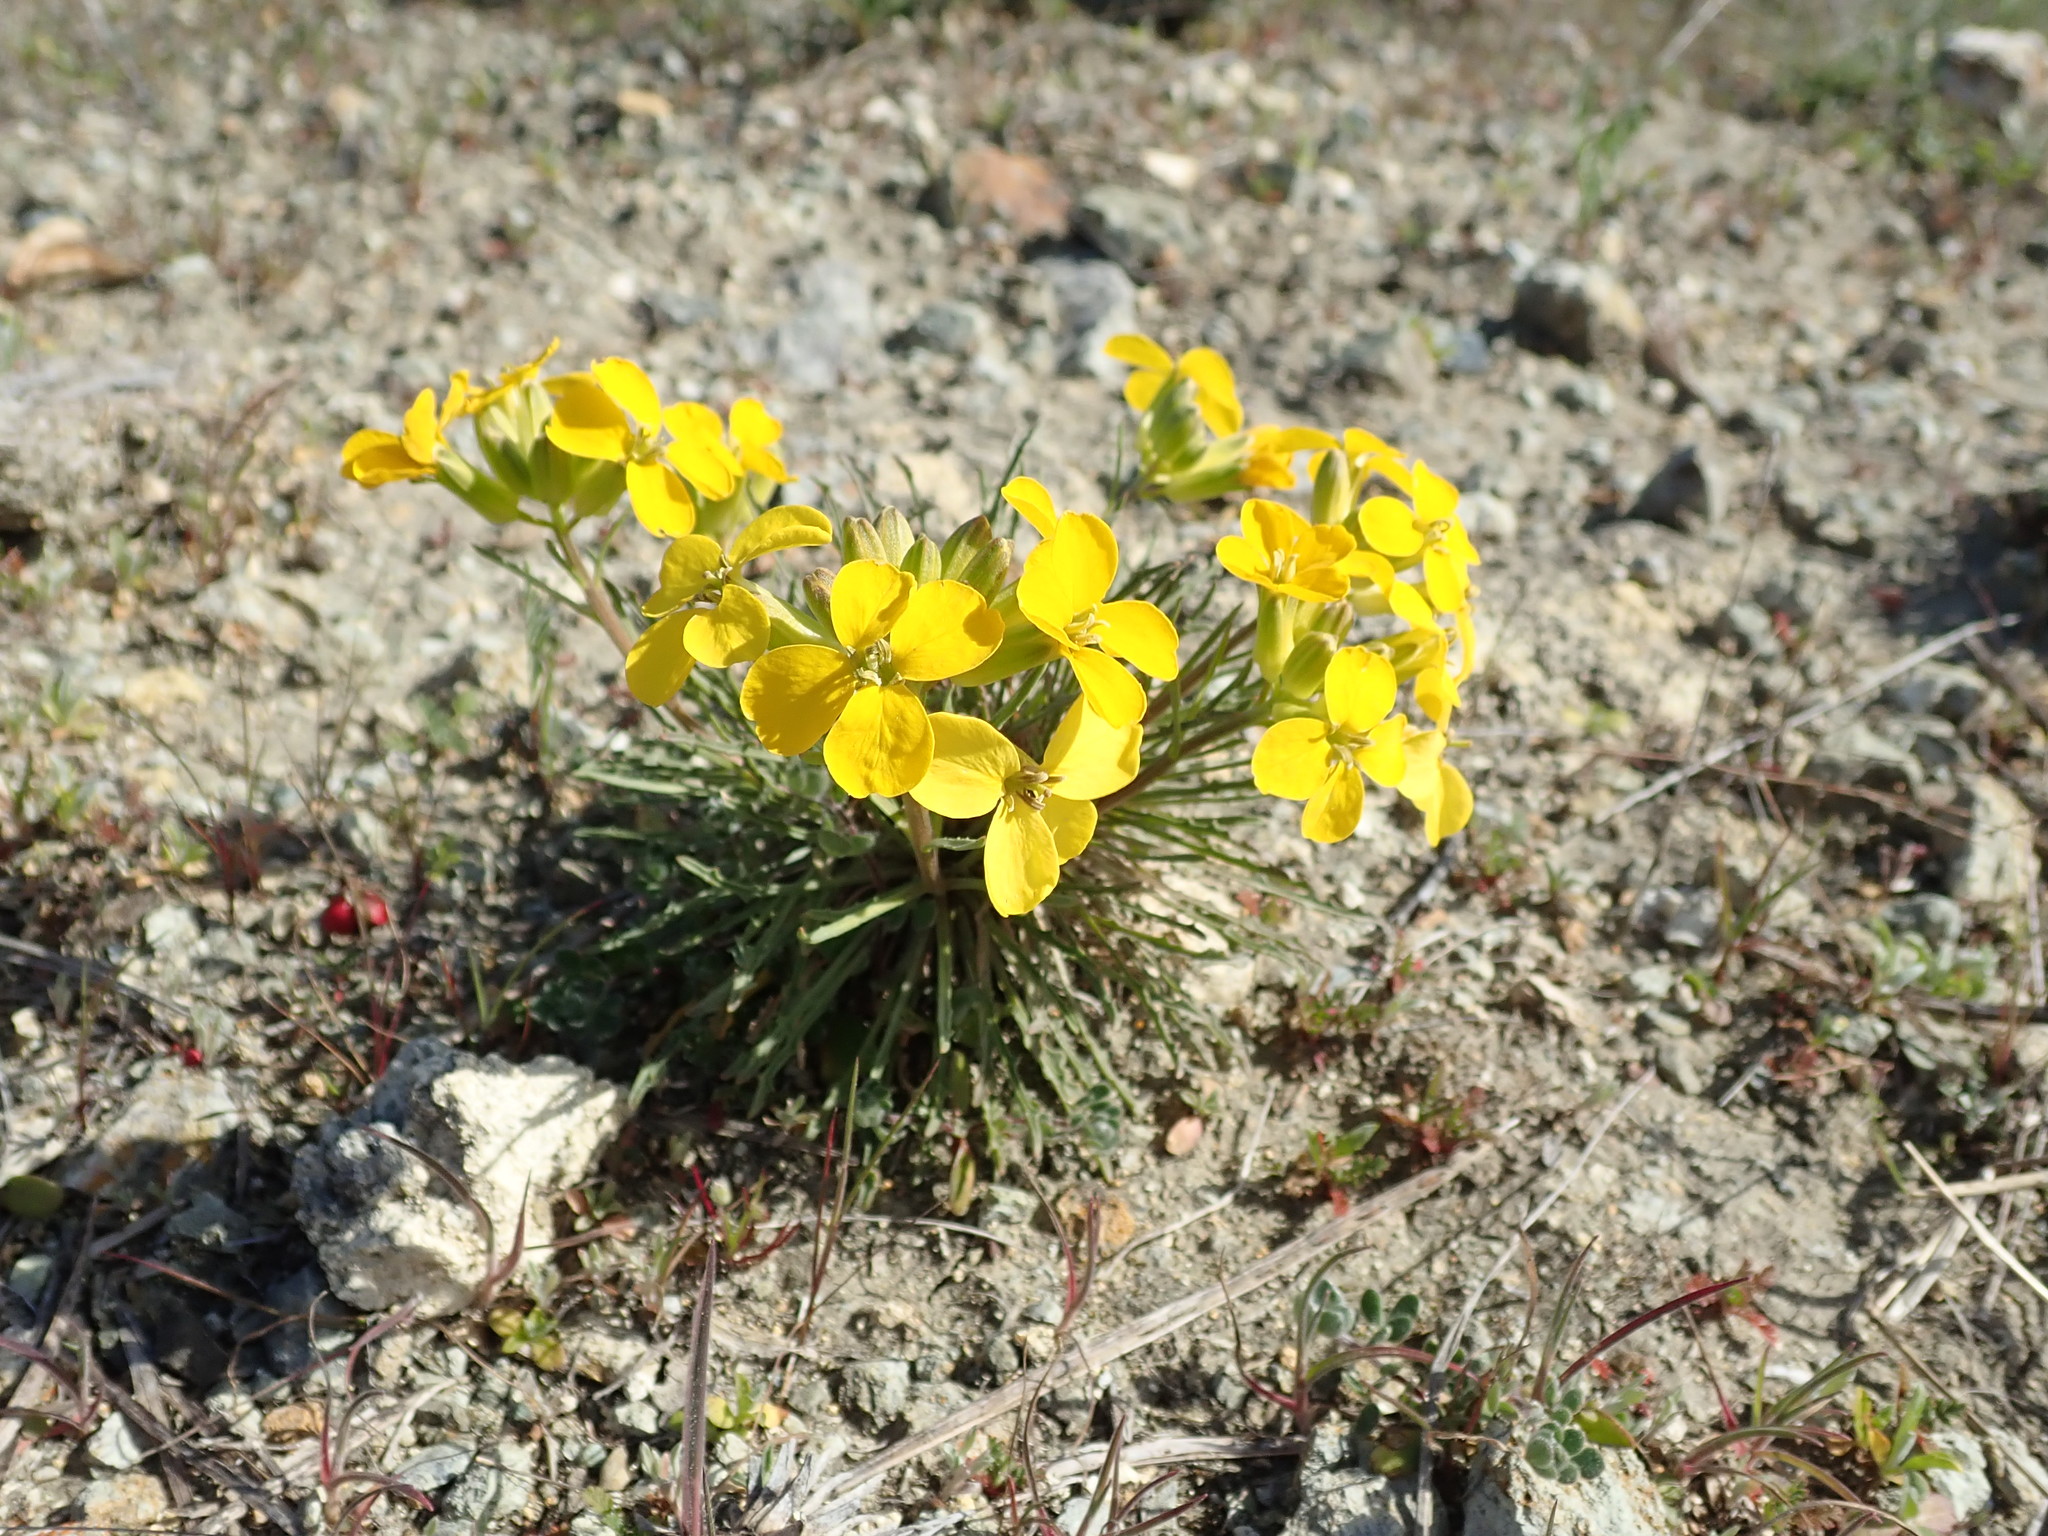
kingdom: Plantae
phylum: Tracheophyta
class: Magnoliopsida
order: Brassicales
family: Brassicaceae
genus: Erysimum
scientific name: Erysimum franciscanum
